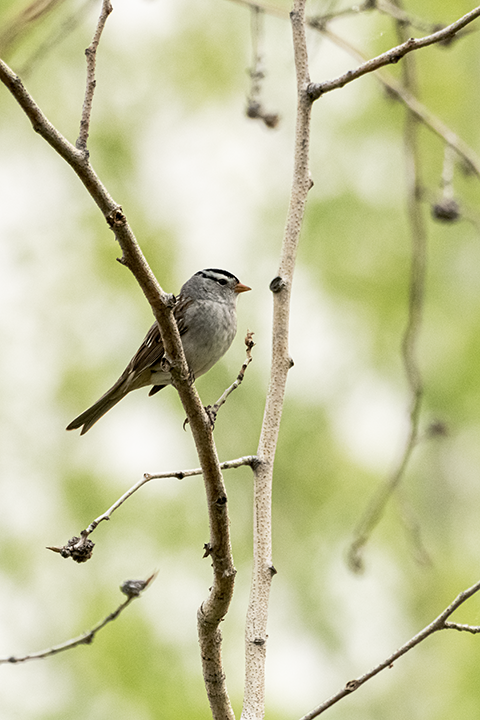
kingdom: Animalia
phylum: Chordata
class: Aves
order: Passeriformes
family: Passerellidae
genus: Zonotrichia
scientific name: Zonotrichia leucophrys
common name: White-crowned sparrow
